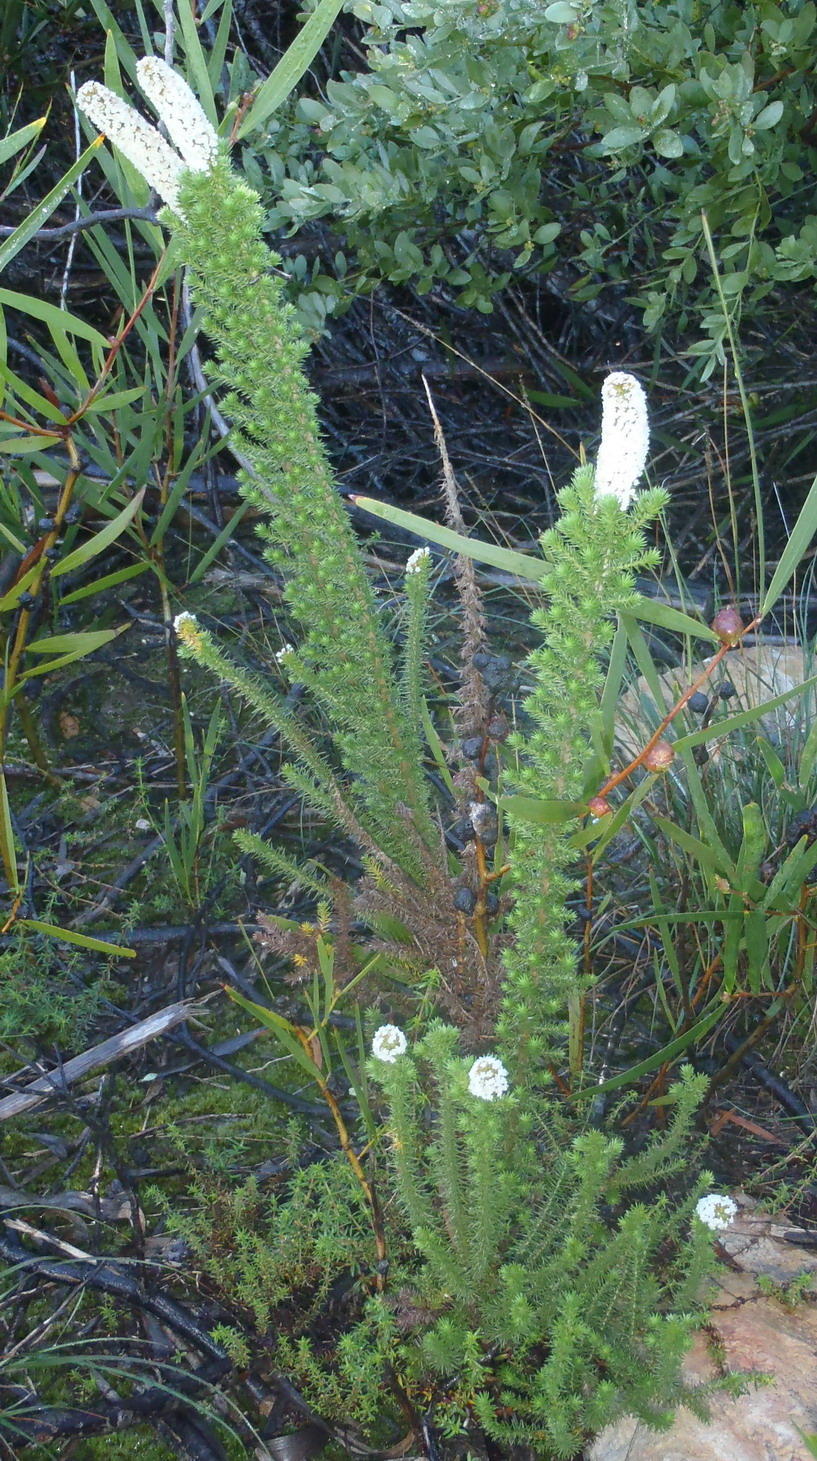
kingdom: Plantae
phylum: Tracheophyta
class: Magnoliopsida
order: Asterales
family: Asteraceae
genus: Stoebe
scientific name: Stoebe alopecuroides
